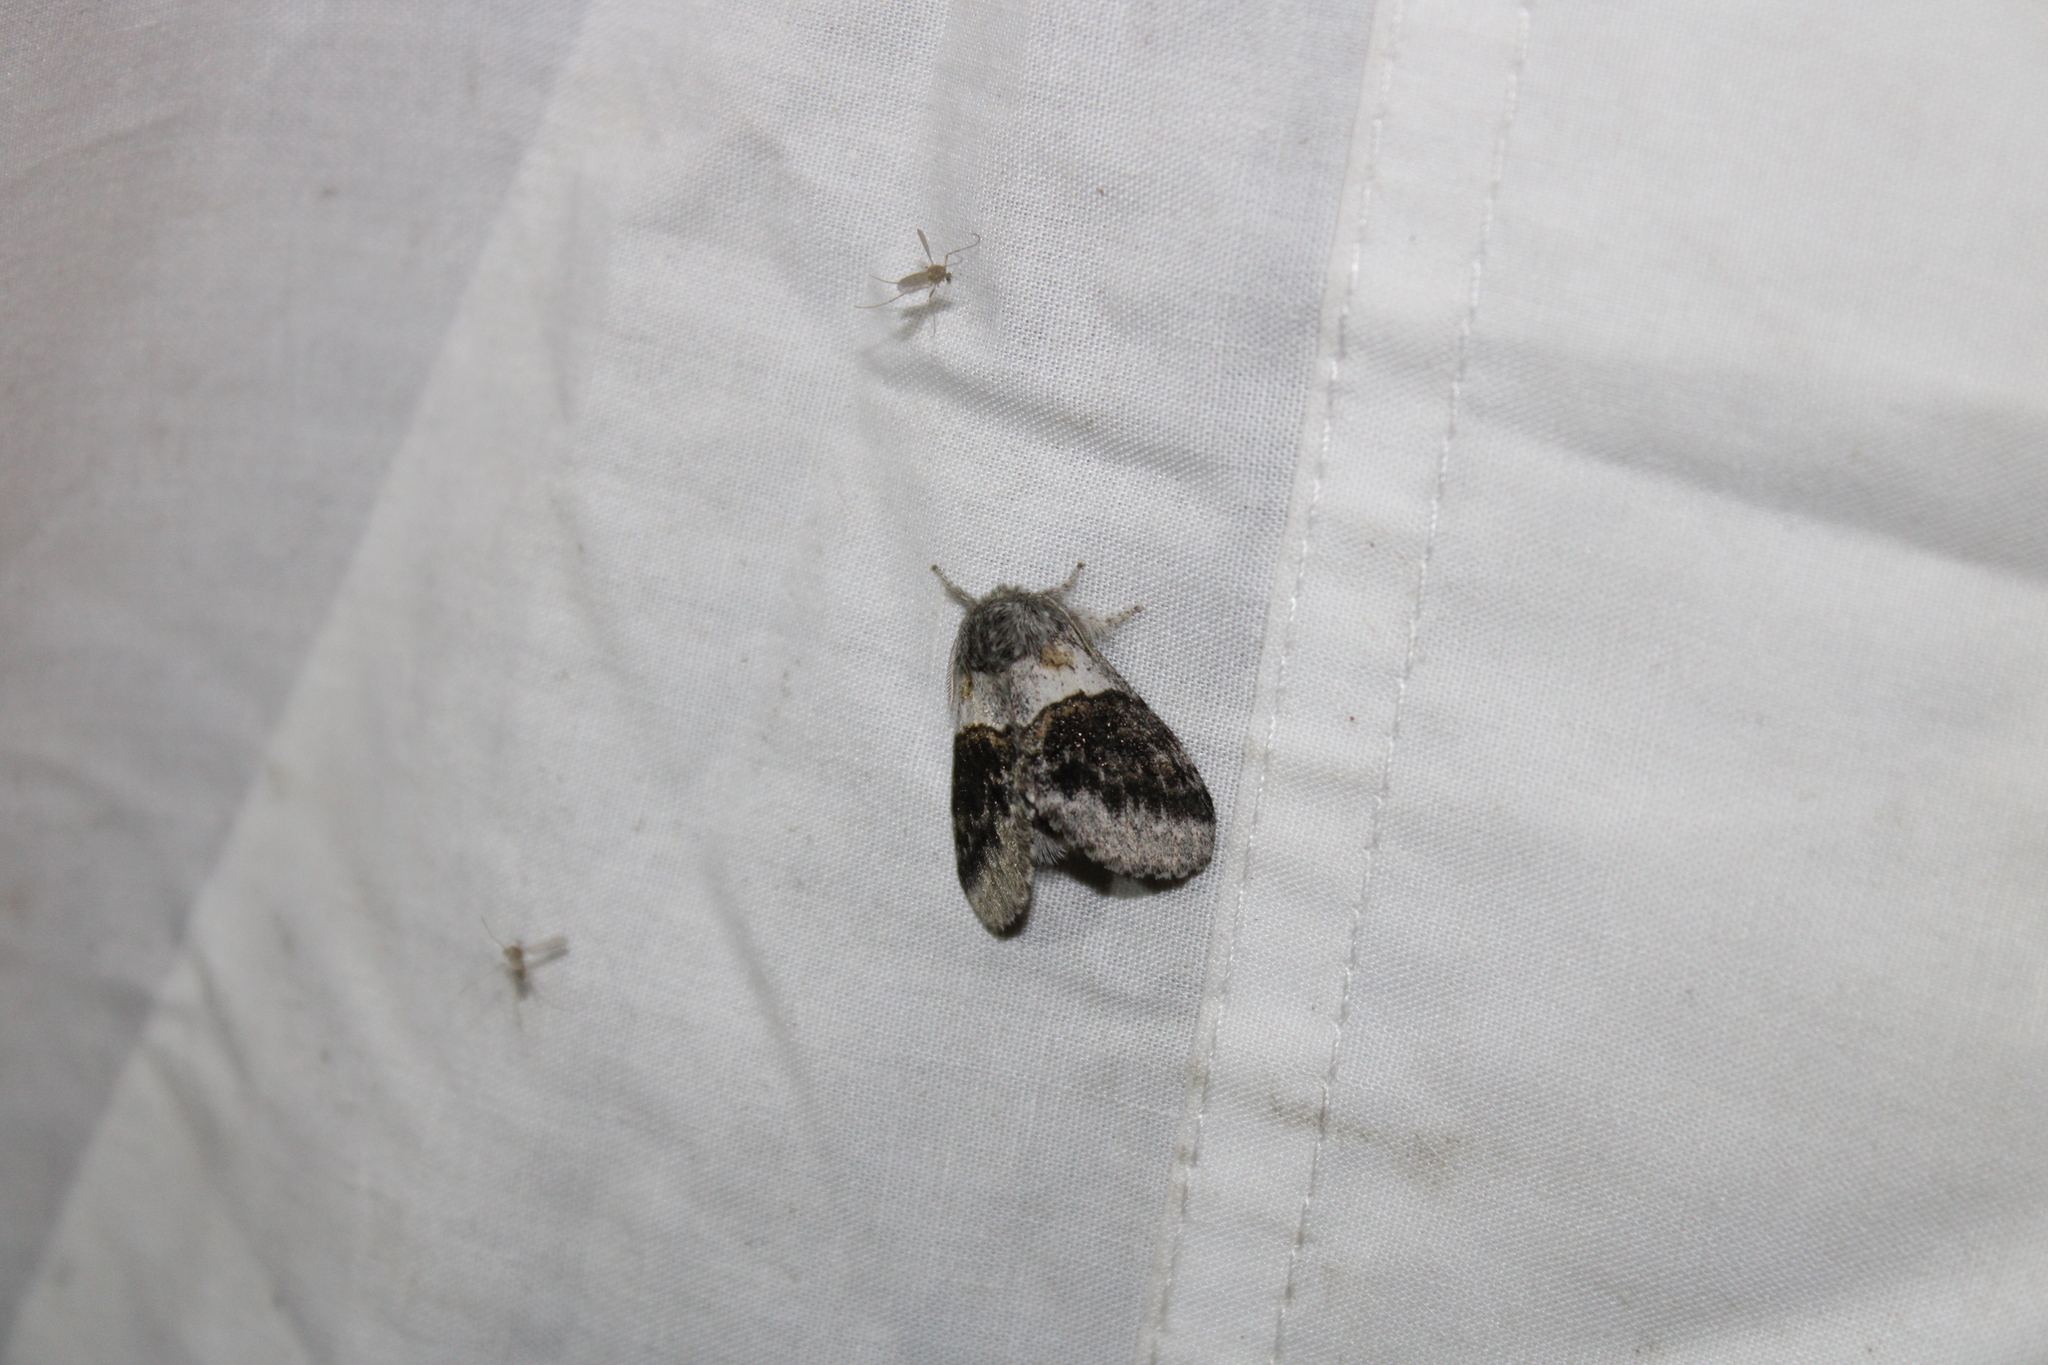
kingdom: Animalia
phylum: Arthropoda
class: Insecta
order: Lepidoptera
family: Notodontidae
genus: Gluphisia
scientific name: Gluphisia septentrionis
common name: Common gluphisia
